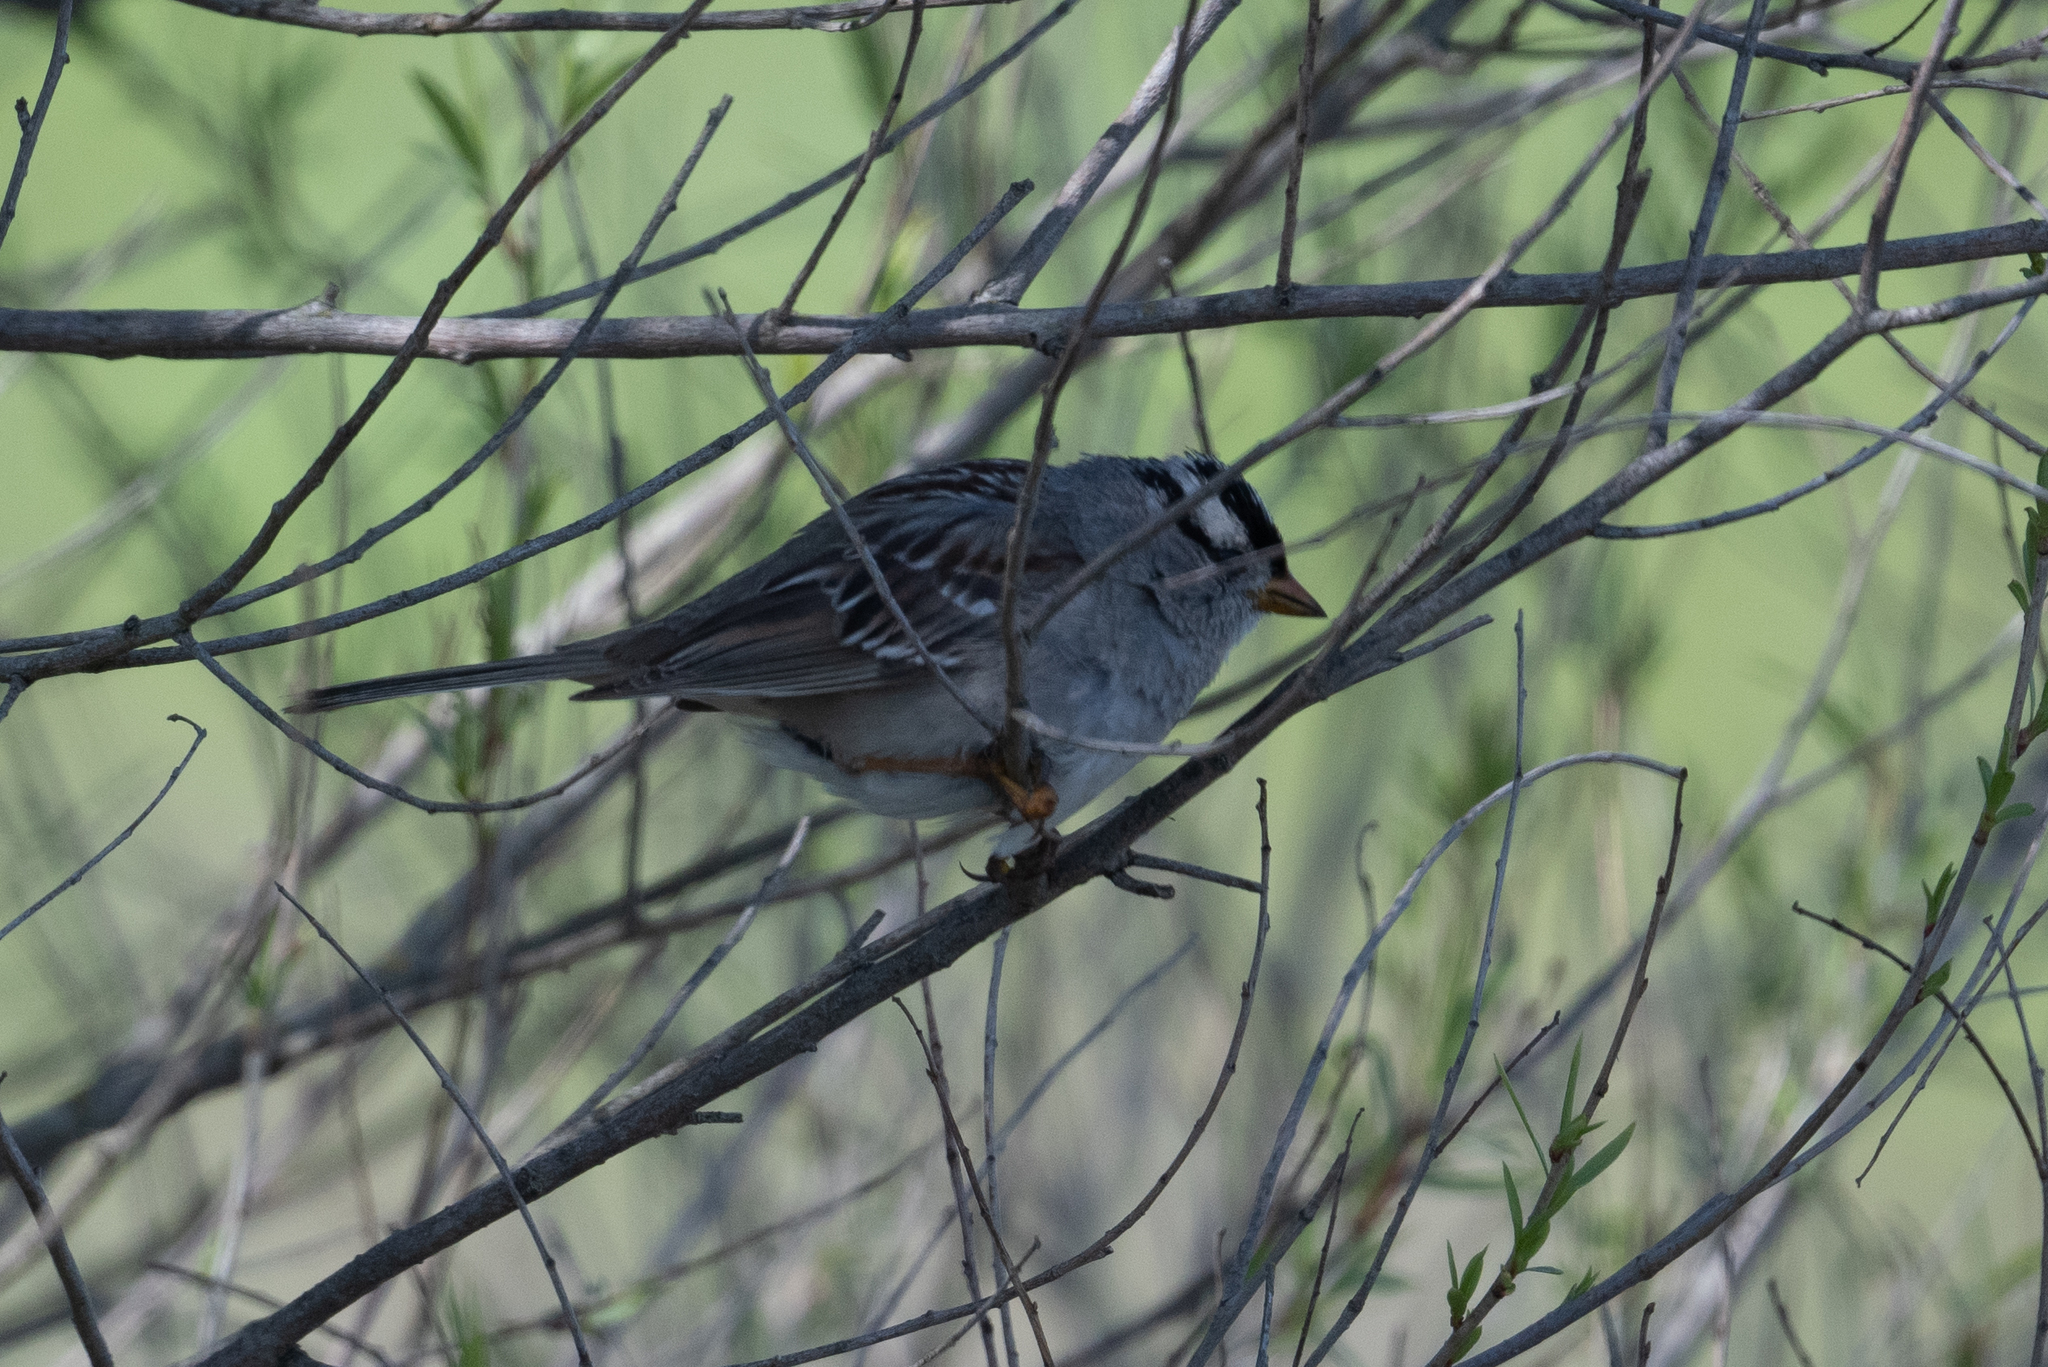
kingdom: Animalia
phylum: Chordata
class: Aves
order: Passeriformes
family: Passerellidae
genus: Zonotrichia
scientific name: Zonotrichia leucophrys
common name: White-crowned sparrow
